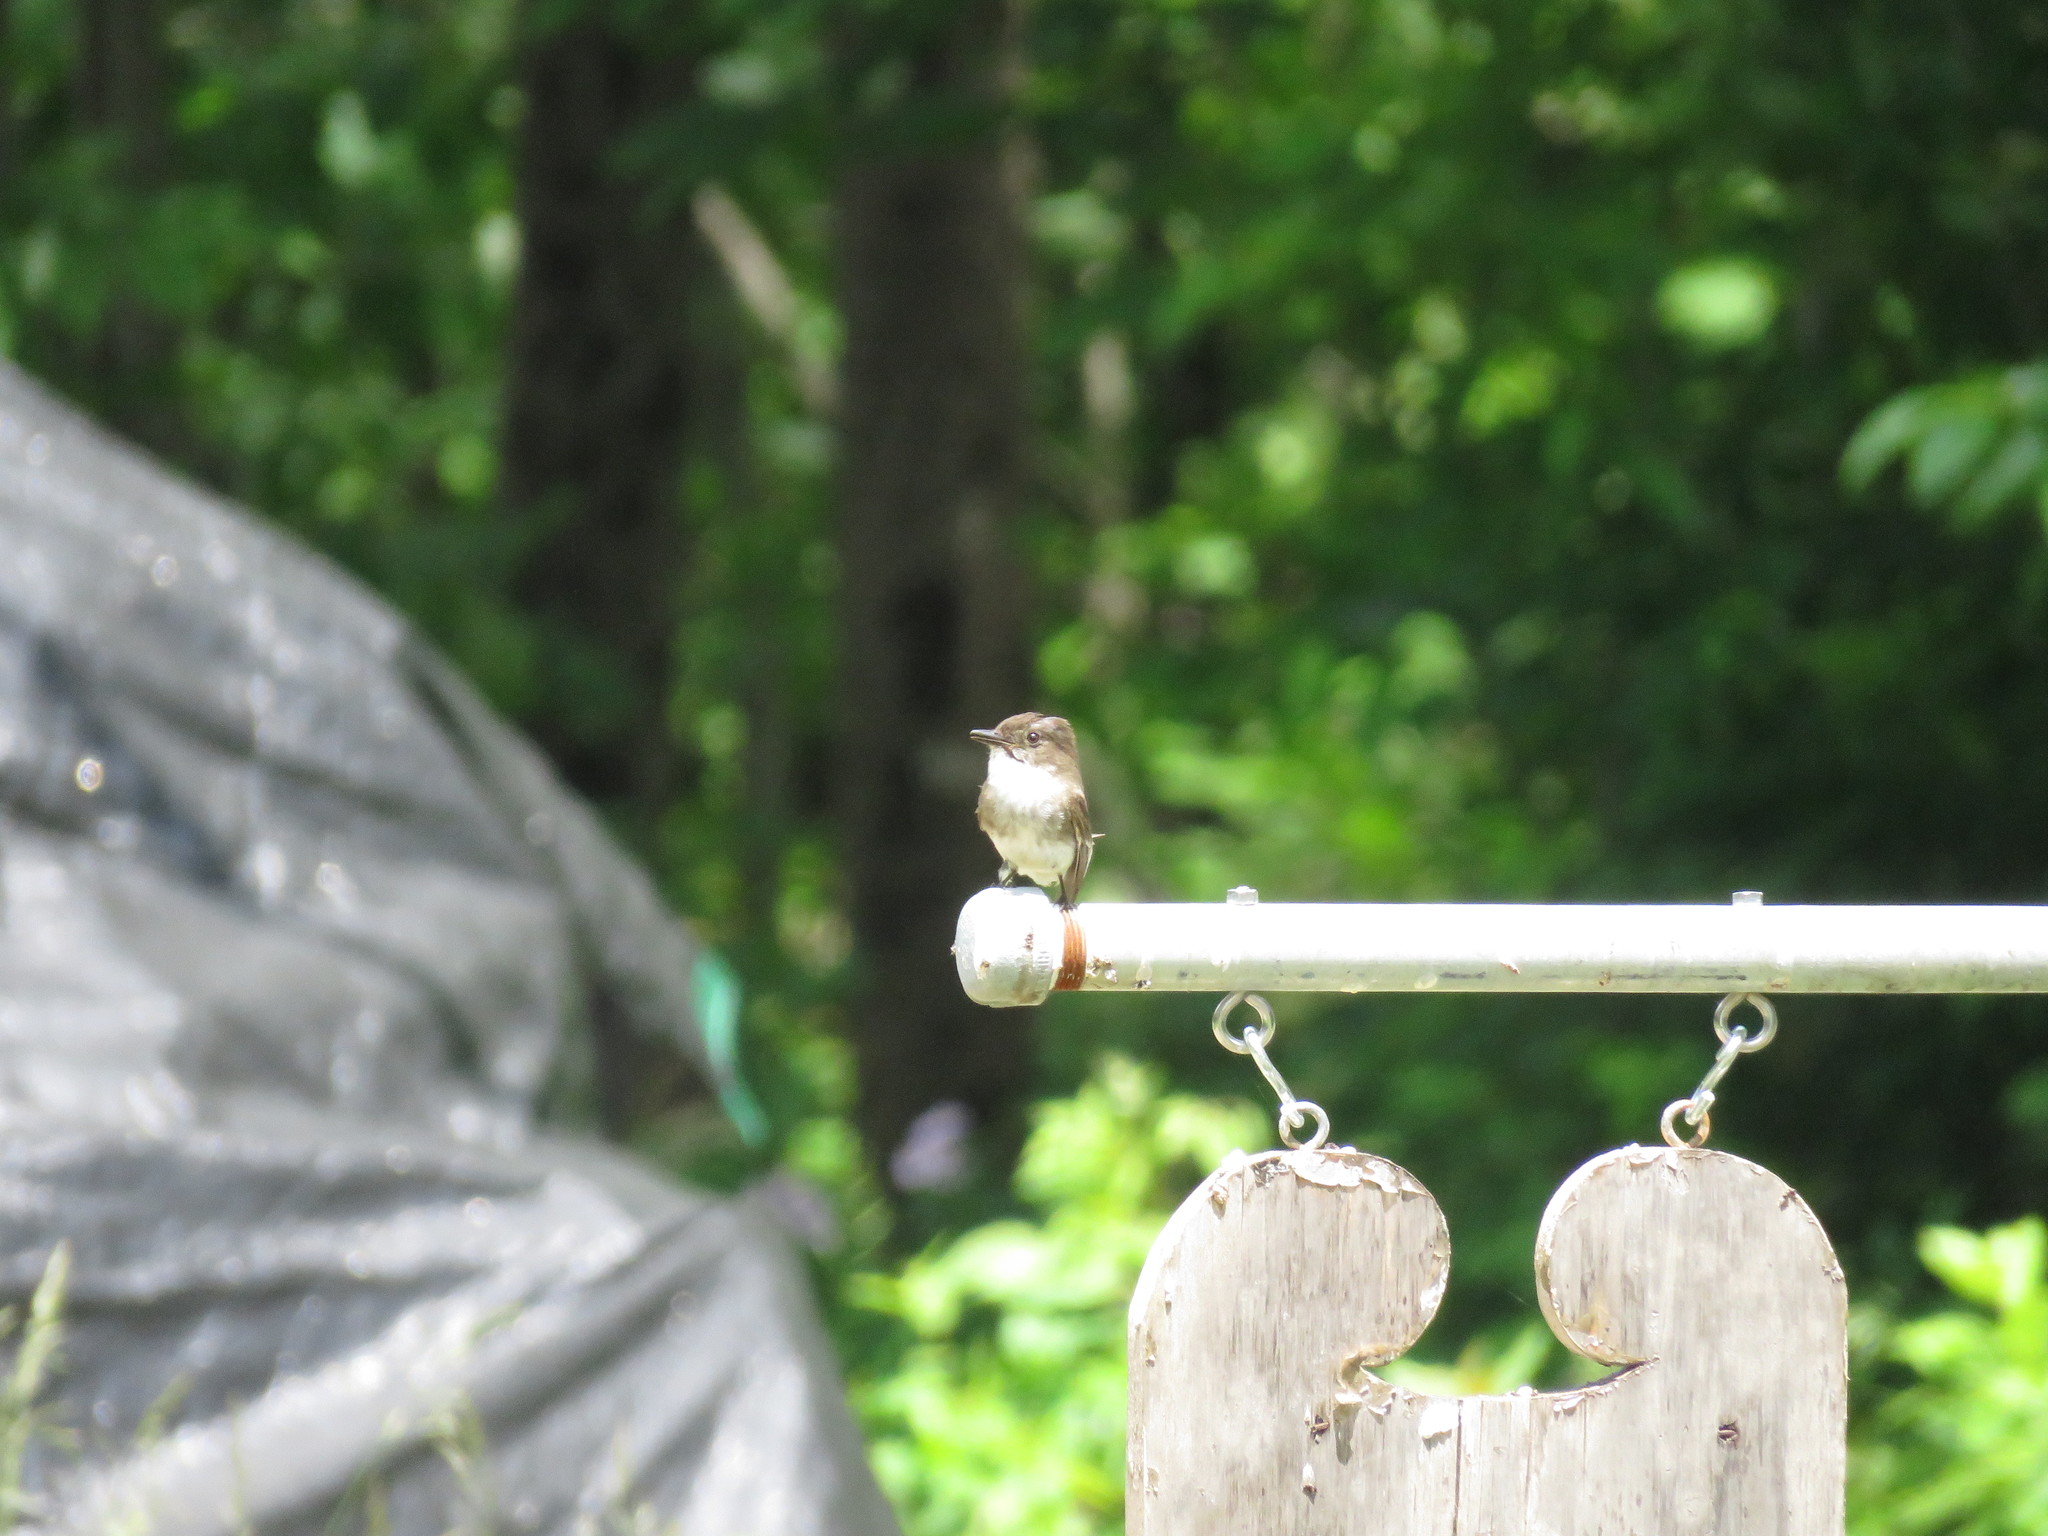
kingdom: Animalia
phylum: Chordata
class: Aves
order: Passeriformes
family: Tyrannidae
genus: Sayornis
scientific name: Sayornis phoebe
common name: Eastern phoebe
